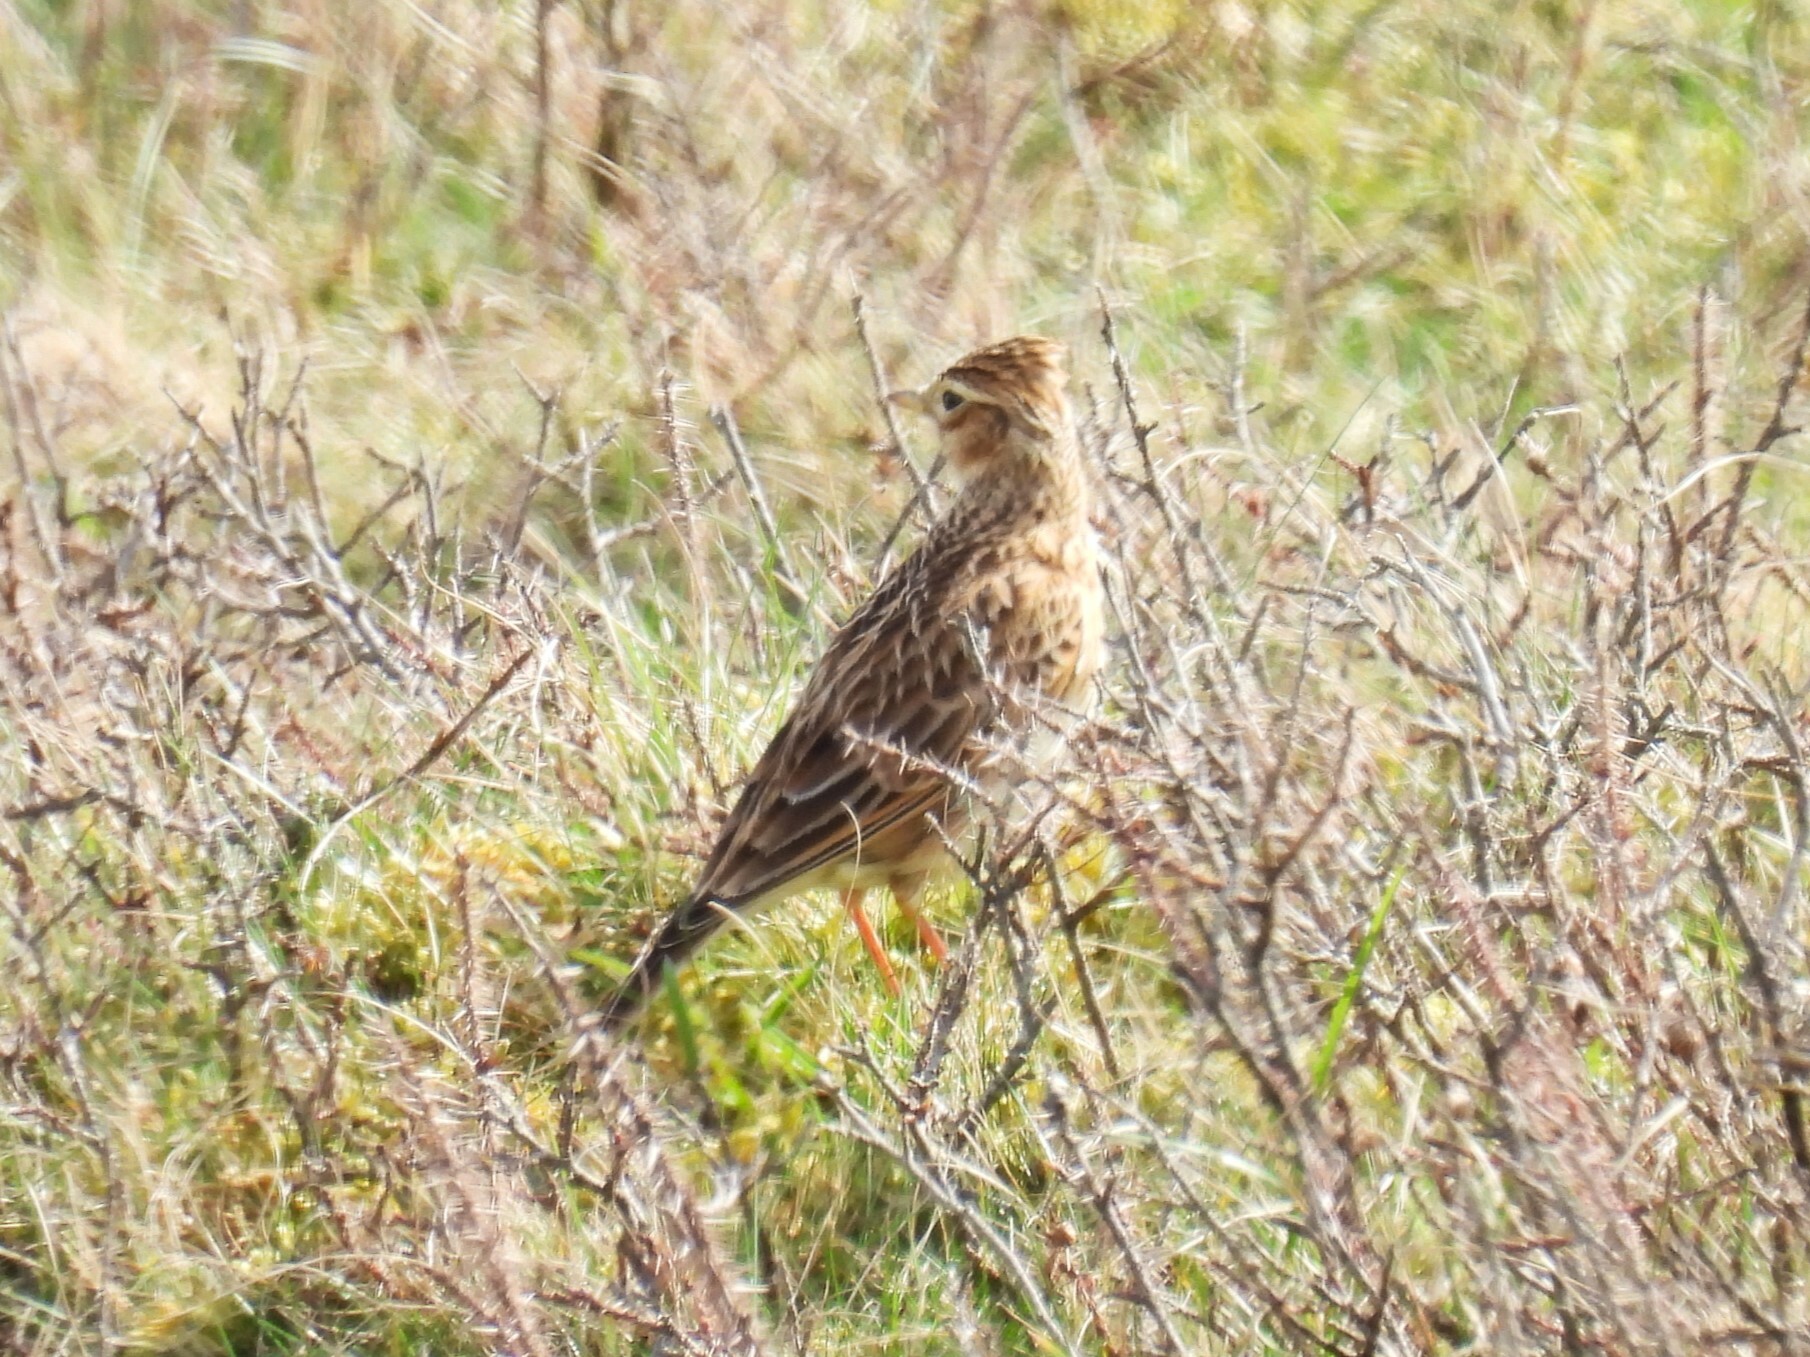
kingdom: Animalia
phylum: Chordata
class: Aves
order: Passeriformes
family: Alaudidae
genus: Alauda
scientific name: Alauda arvensis
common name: Eurasian skylark
